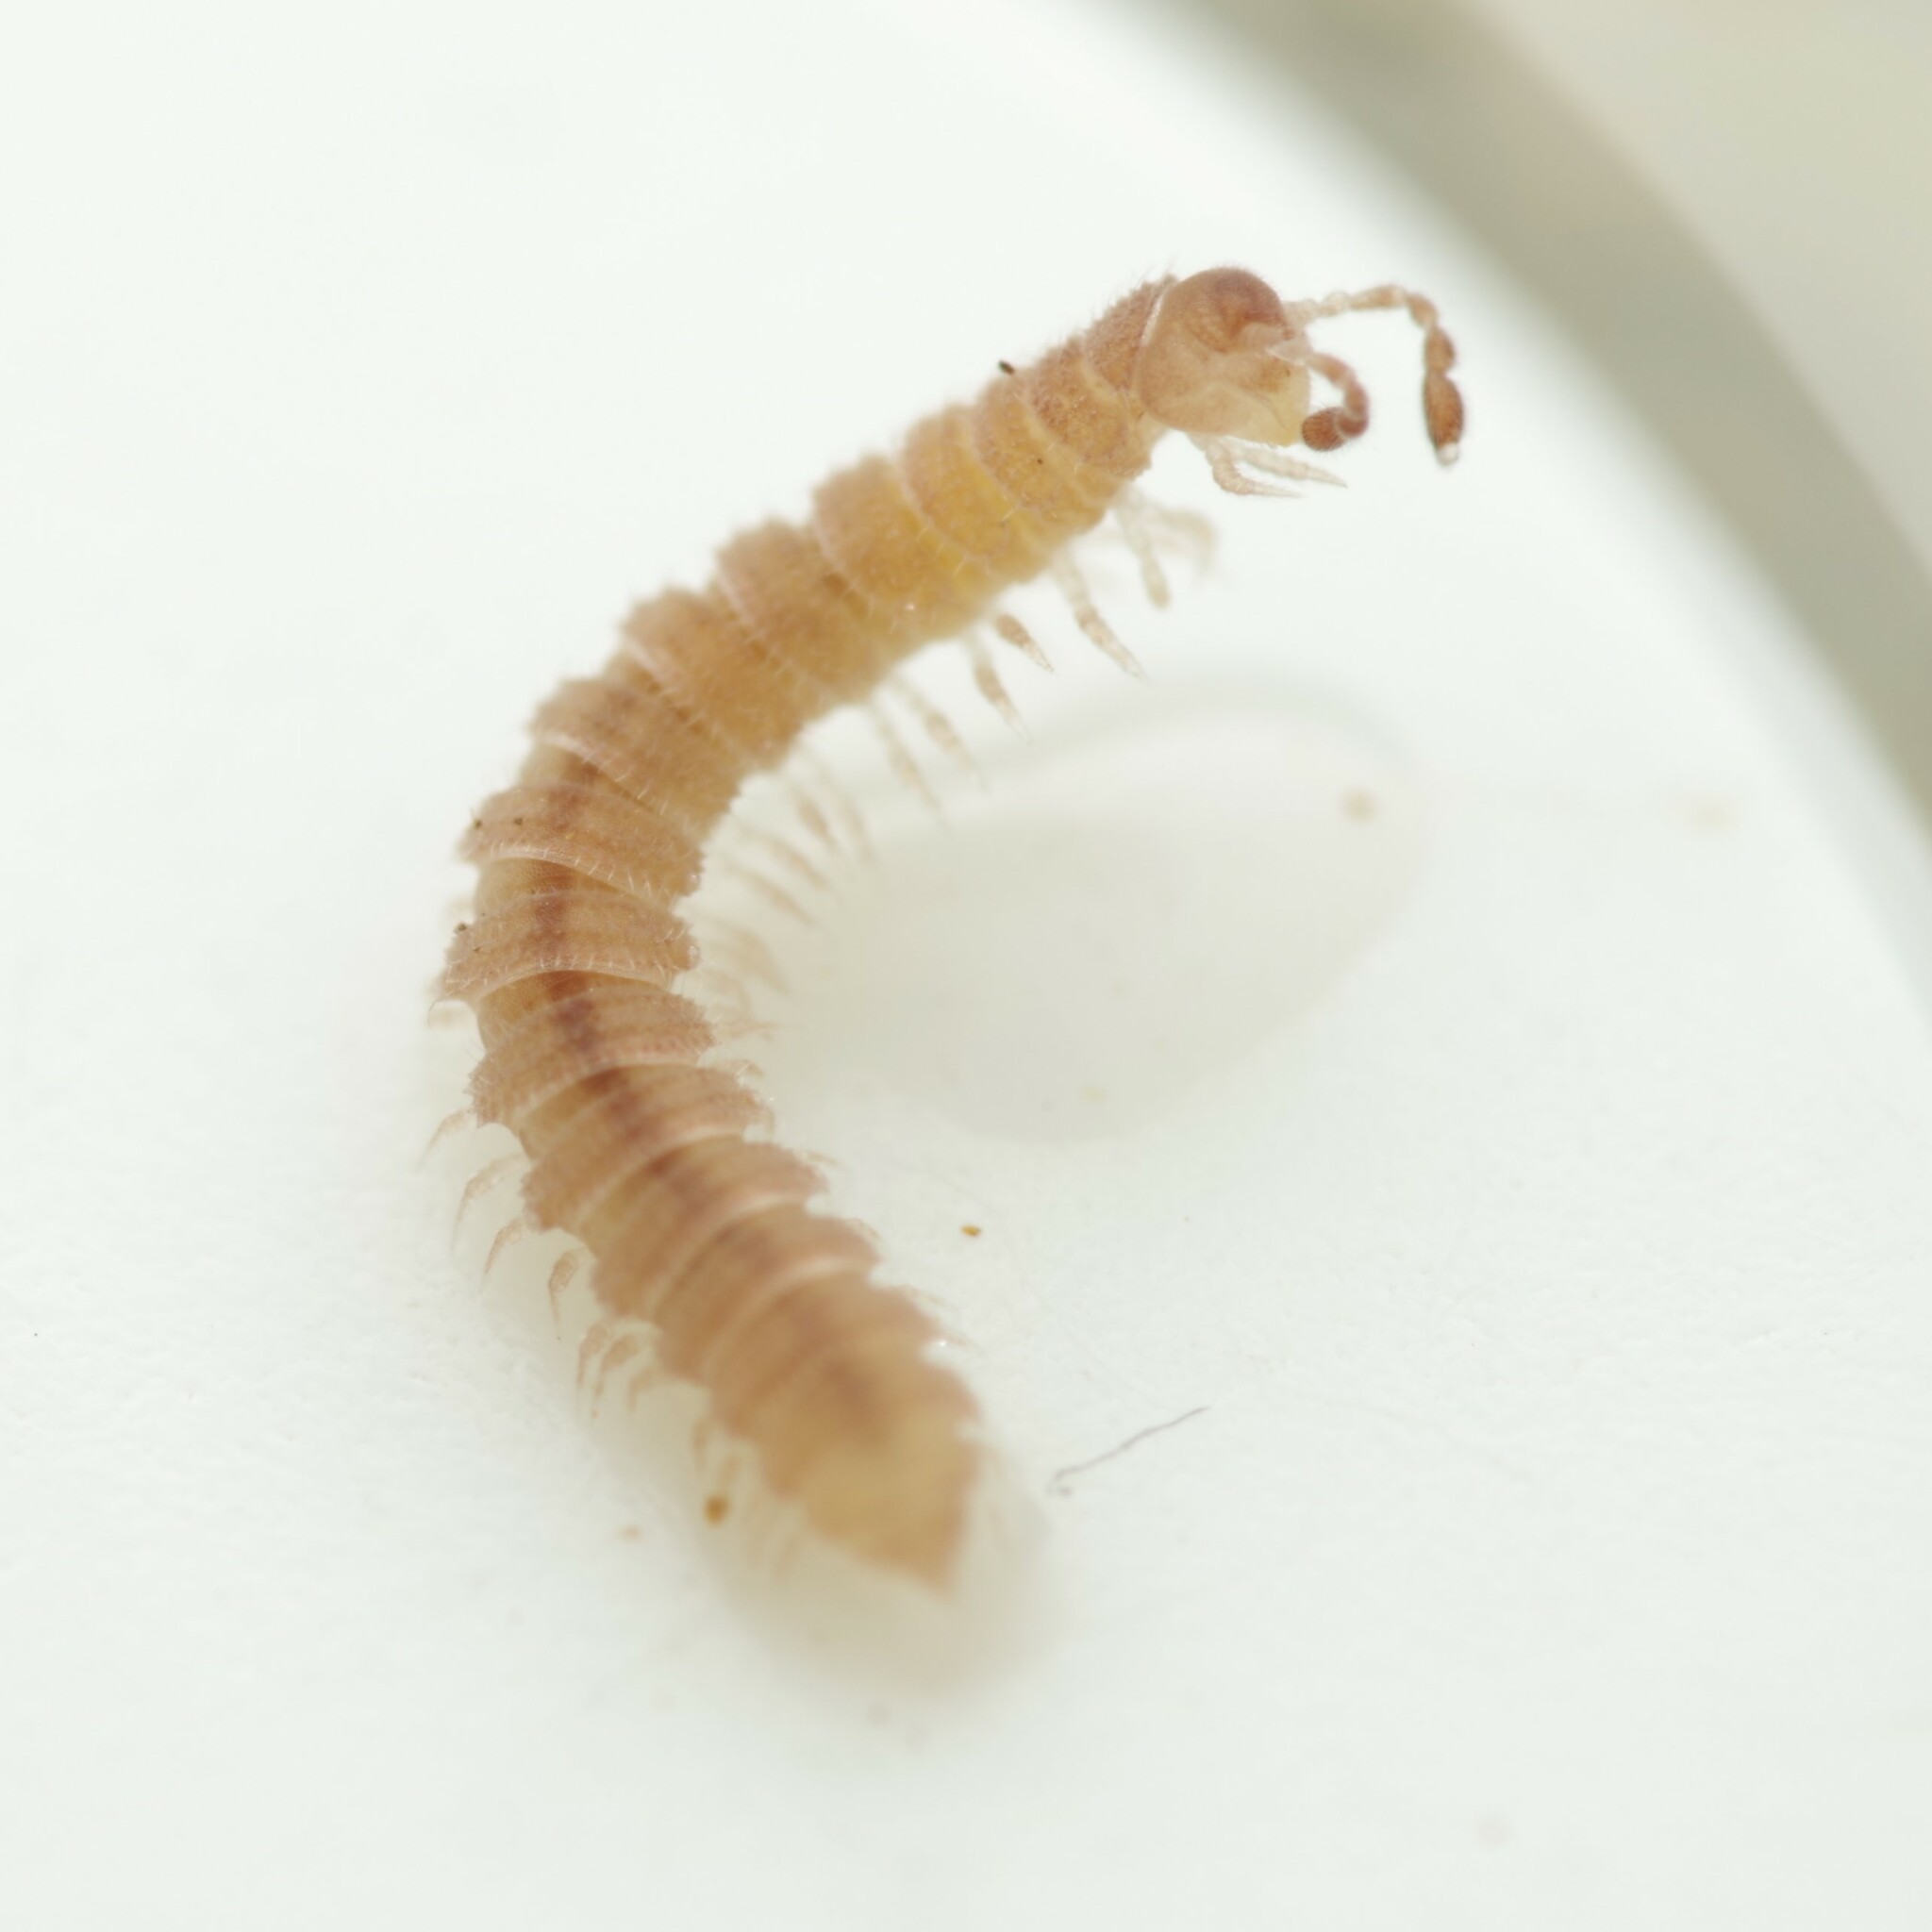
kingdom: Animalia
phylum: Arthropoda
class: Diplopoda
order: Polydesmida
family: Polydesmidae
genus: Archipolydesmus
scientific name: Archipolydesmus ribauti
